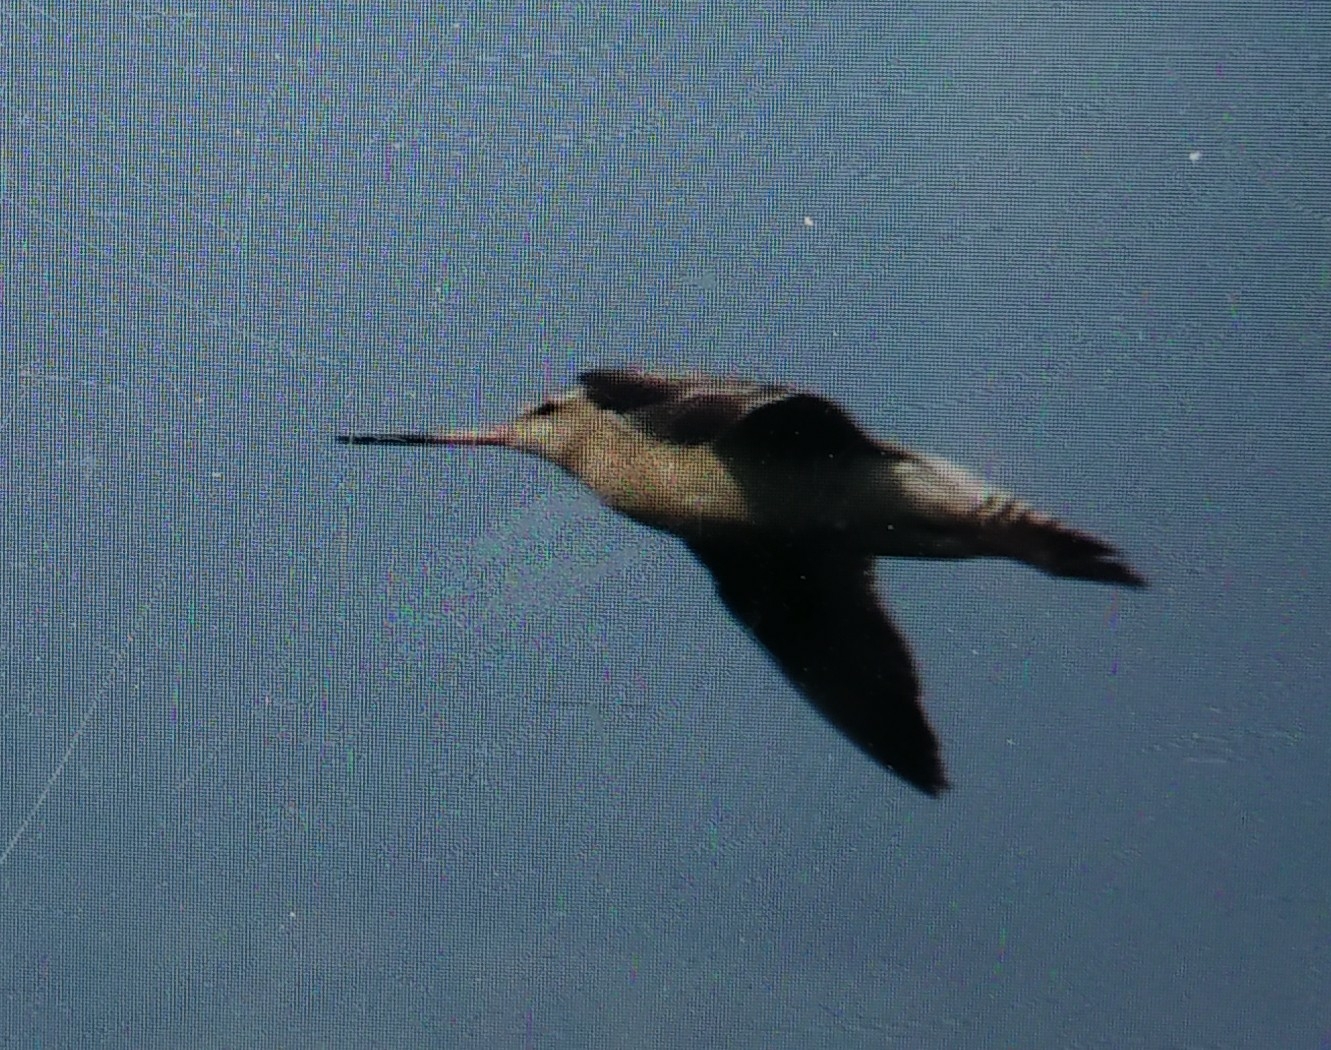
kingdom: Animalia
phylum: Chordata
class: Aves
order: Charadriiformes
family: Scolopacidae
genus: Limosa
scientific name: Limosa lapponica
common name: Bar-tailed godwit
